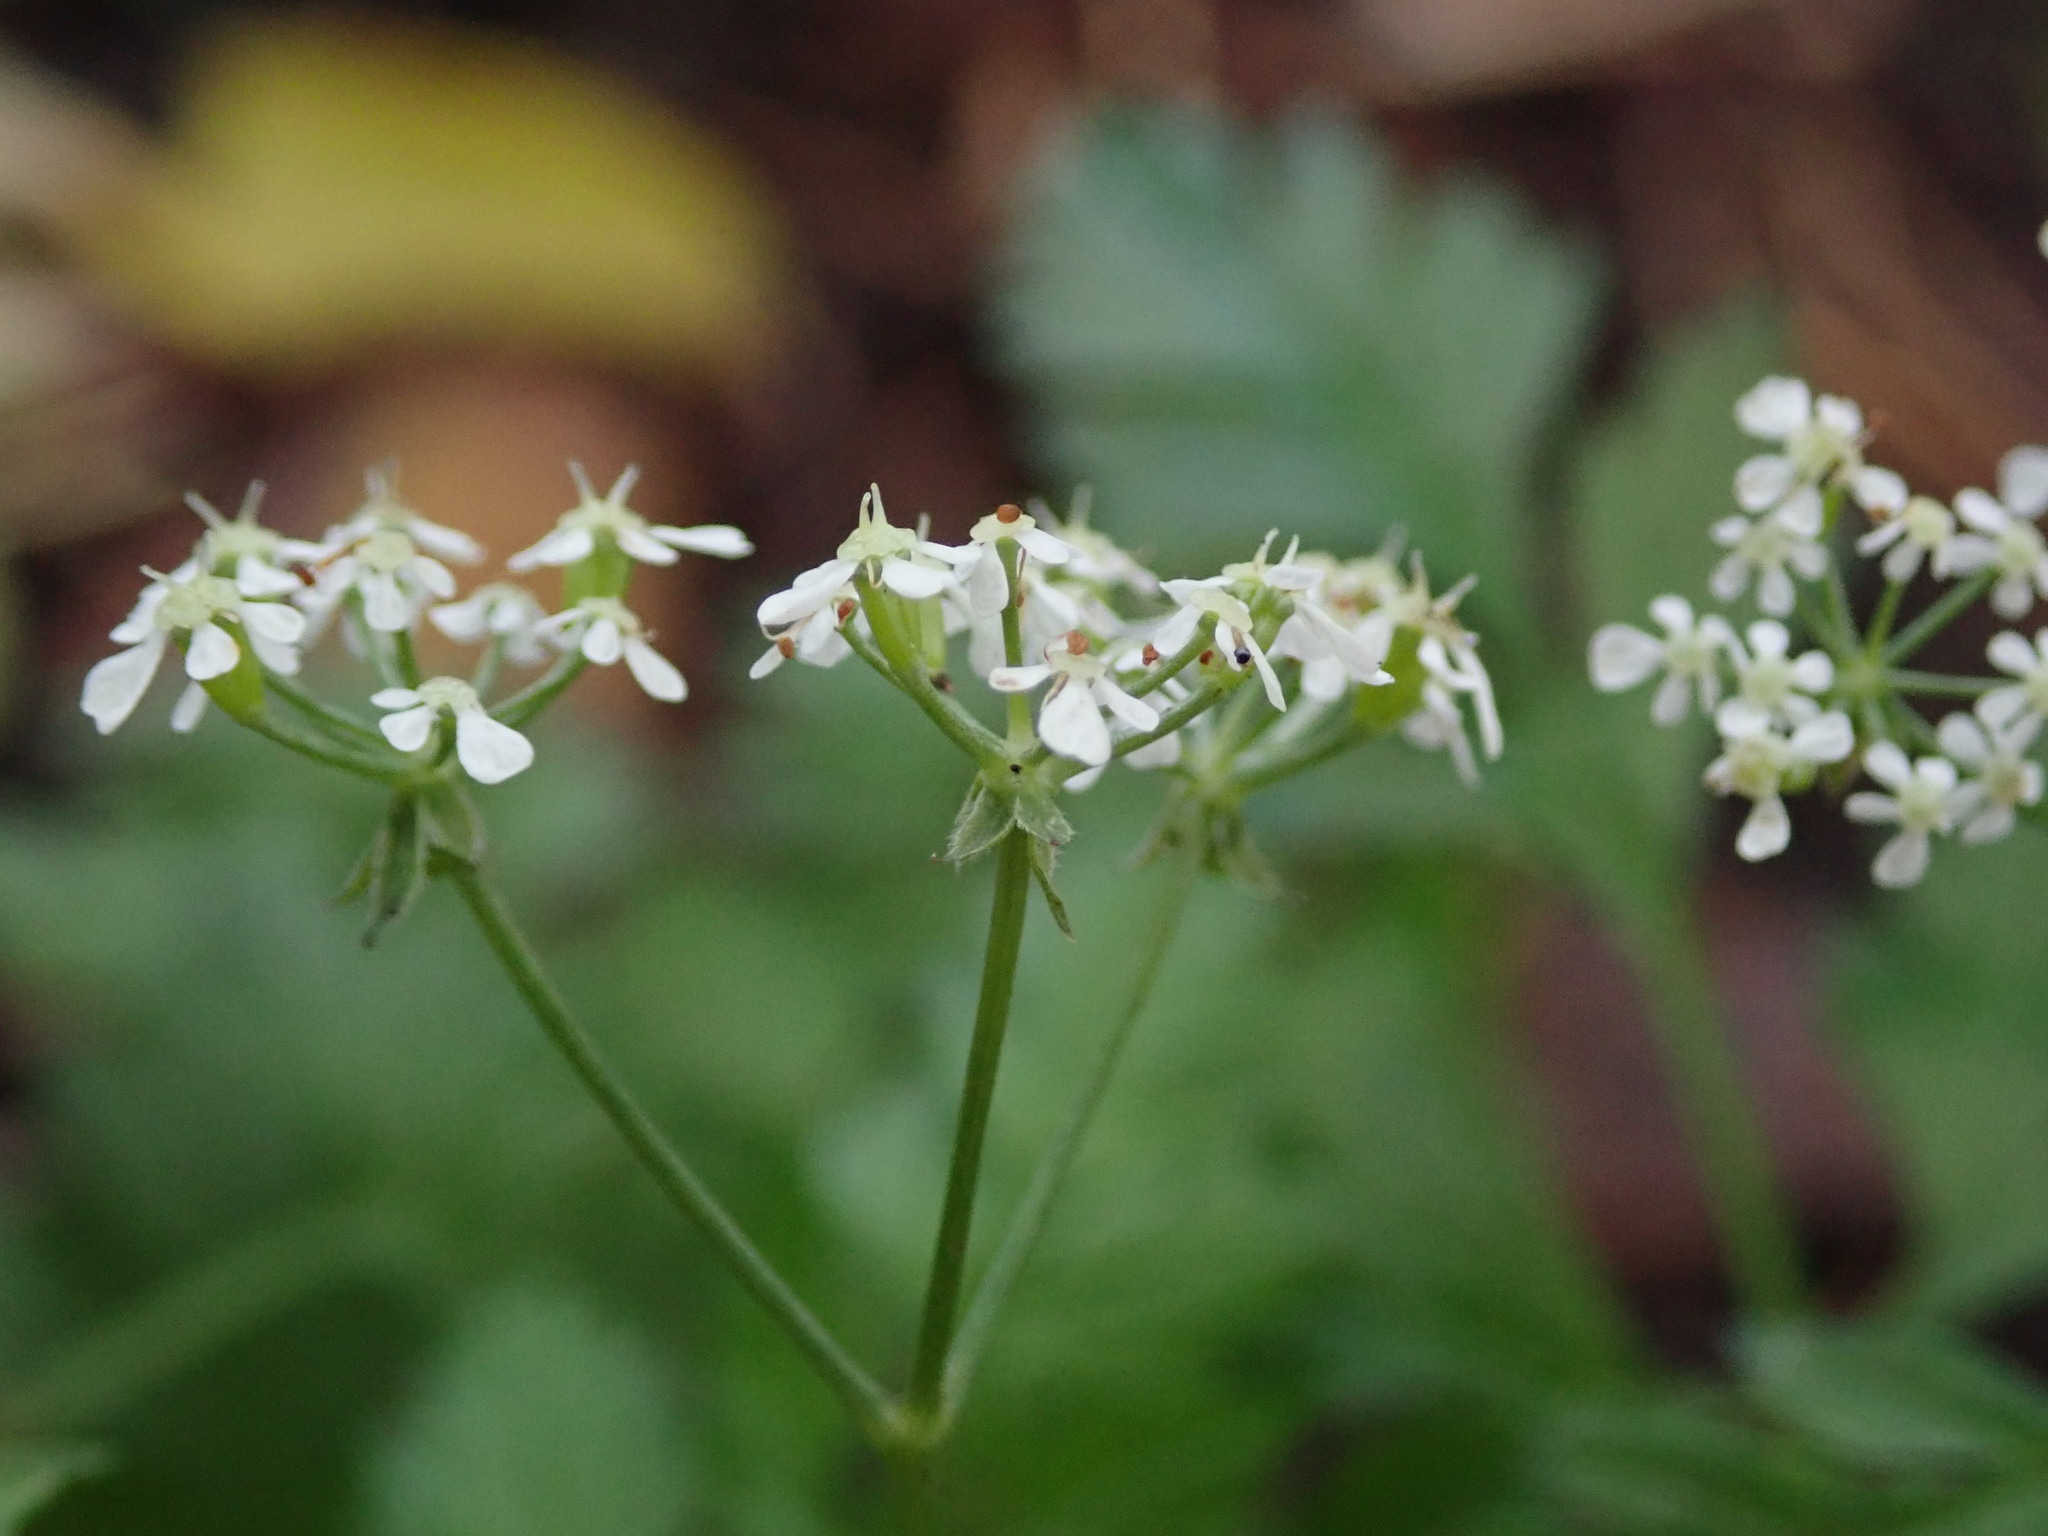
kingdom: Plantae
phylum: Tracheophyta
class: Magnoliopsida
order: Apiales
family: Apiaceae
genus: Anthriscus
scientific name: Anthriscus sylvestris
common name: Cow parsley
